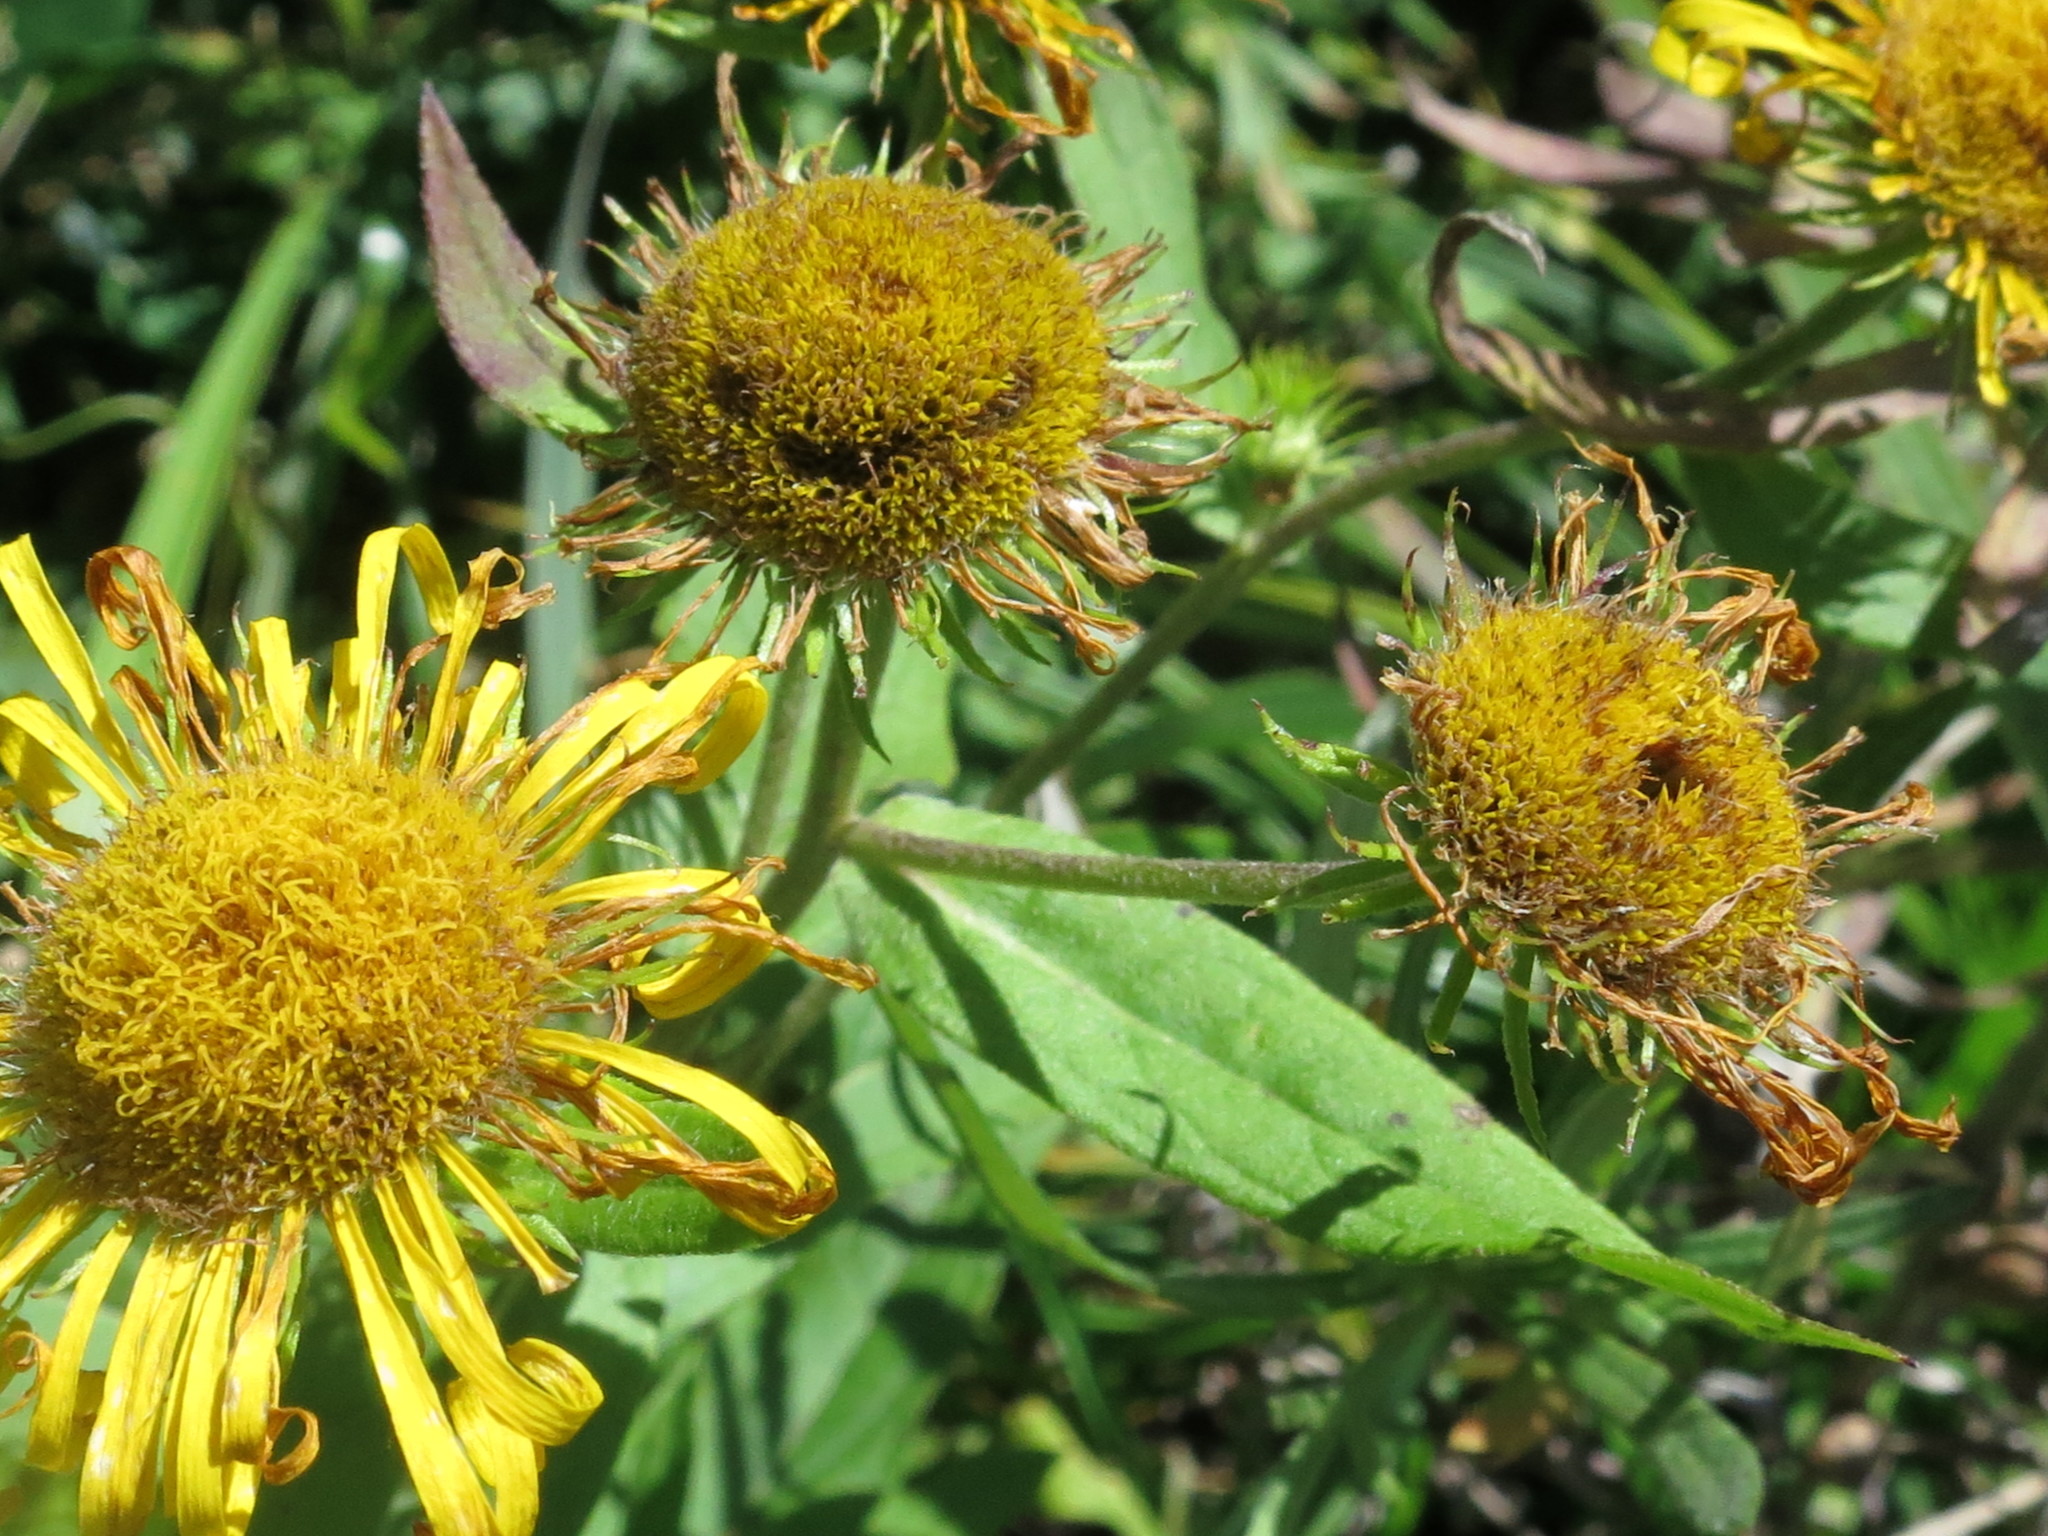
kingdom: Plantae
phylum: Tracheophyta
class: Magnoliopsida
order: Asterales
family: Asteraceae
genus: Inula
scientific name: Inula japonica
